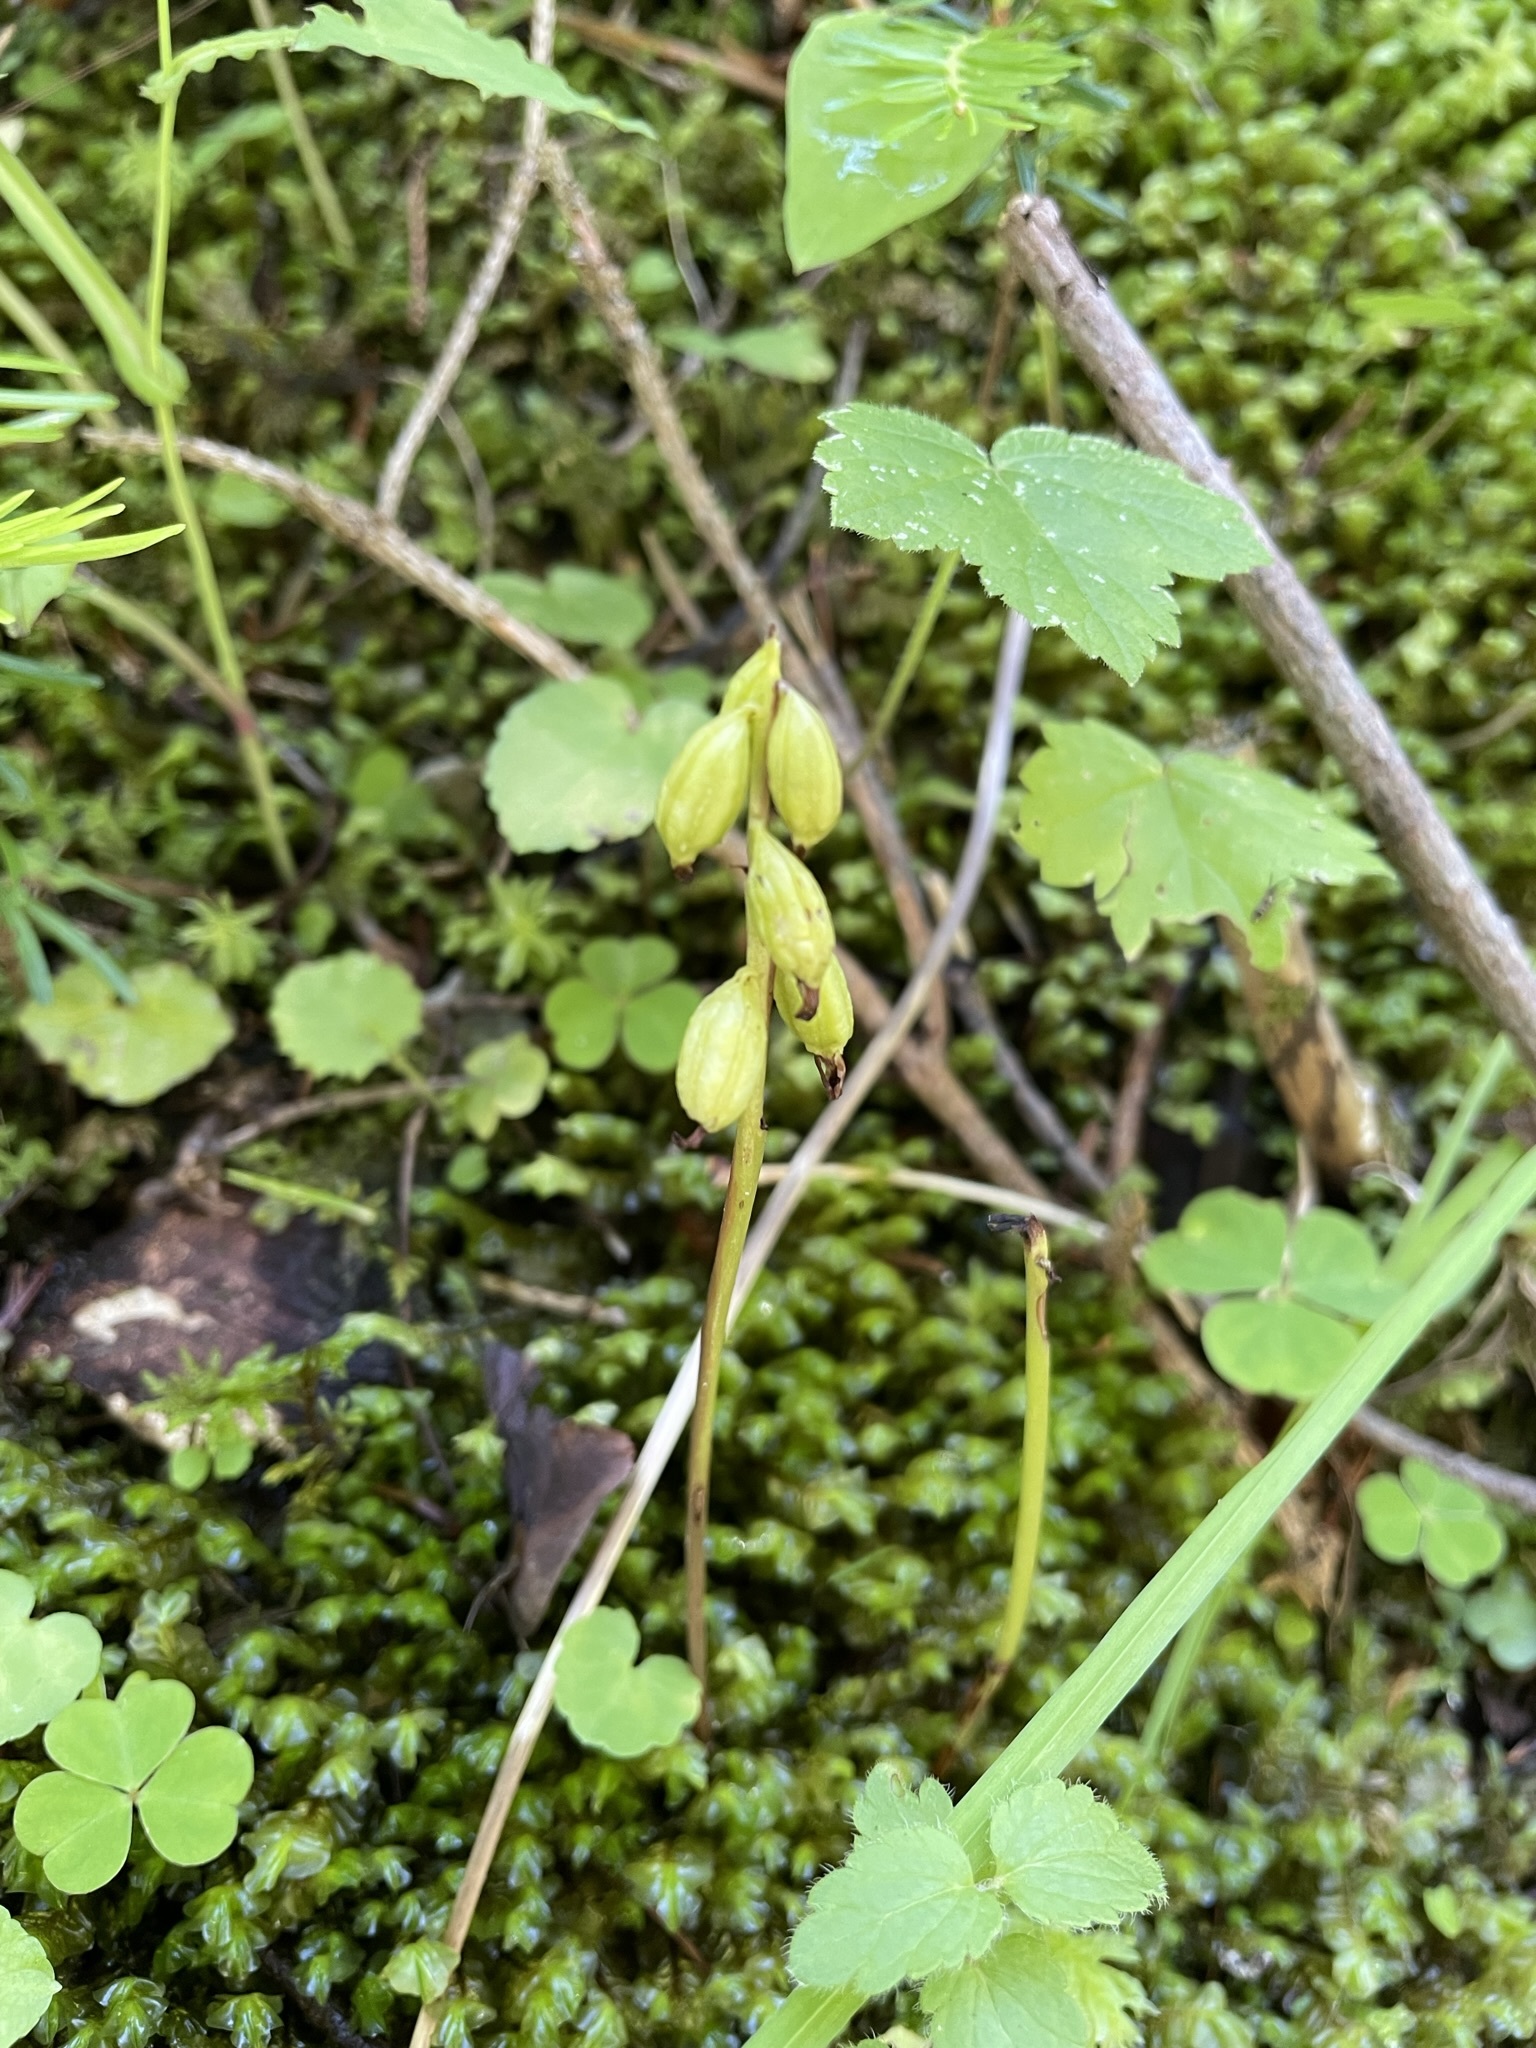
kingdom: Plantae
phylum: Tracheophyta
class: Liliopsida
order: Asparagales
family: Orchidaceae
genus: Corallorhiza
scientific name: Corallorhiza trifida
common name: Yellow coralroot
